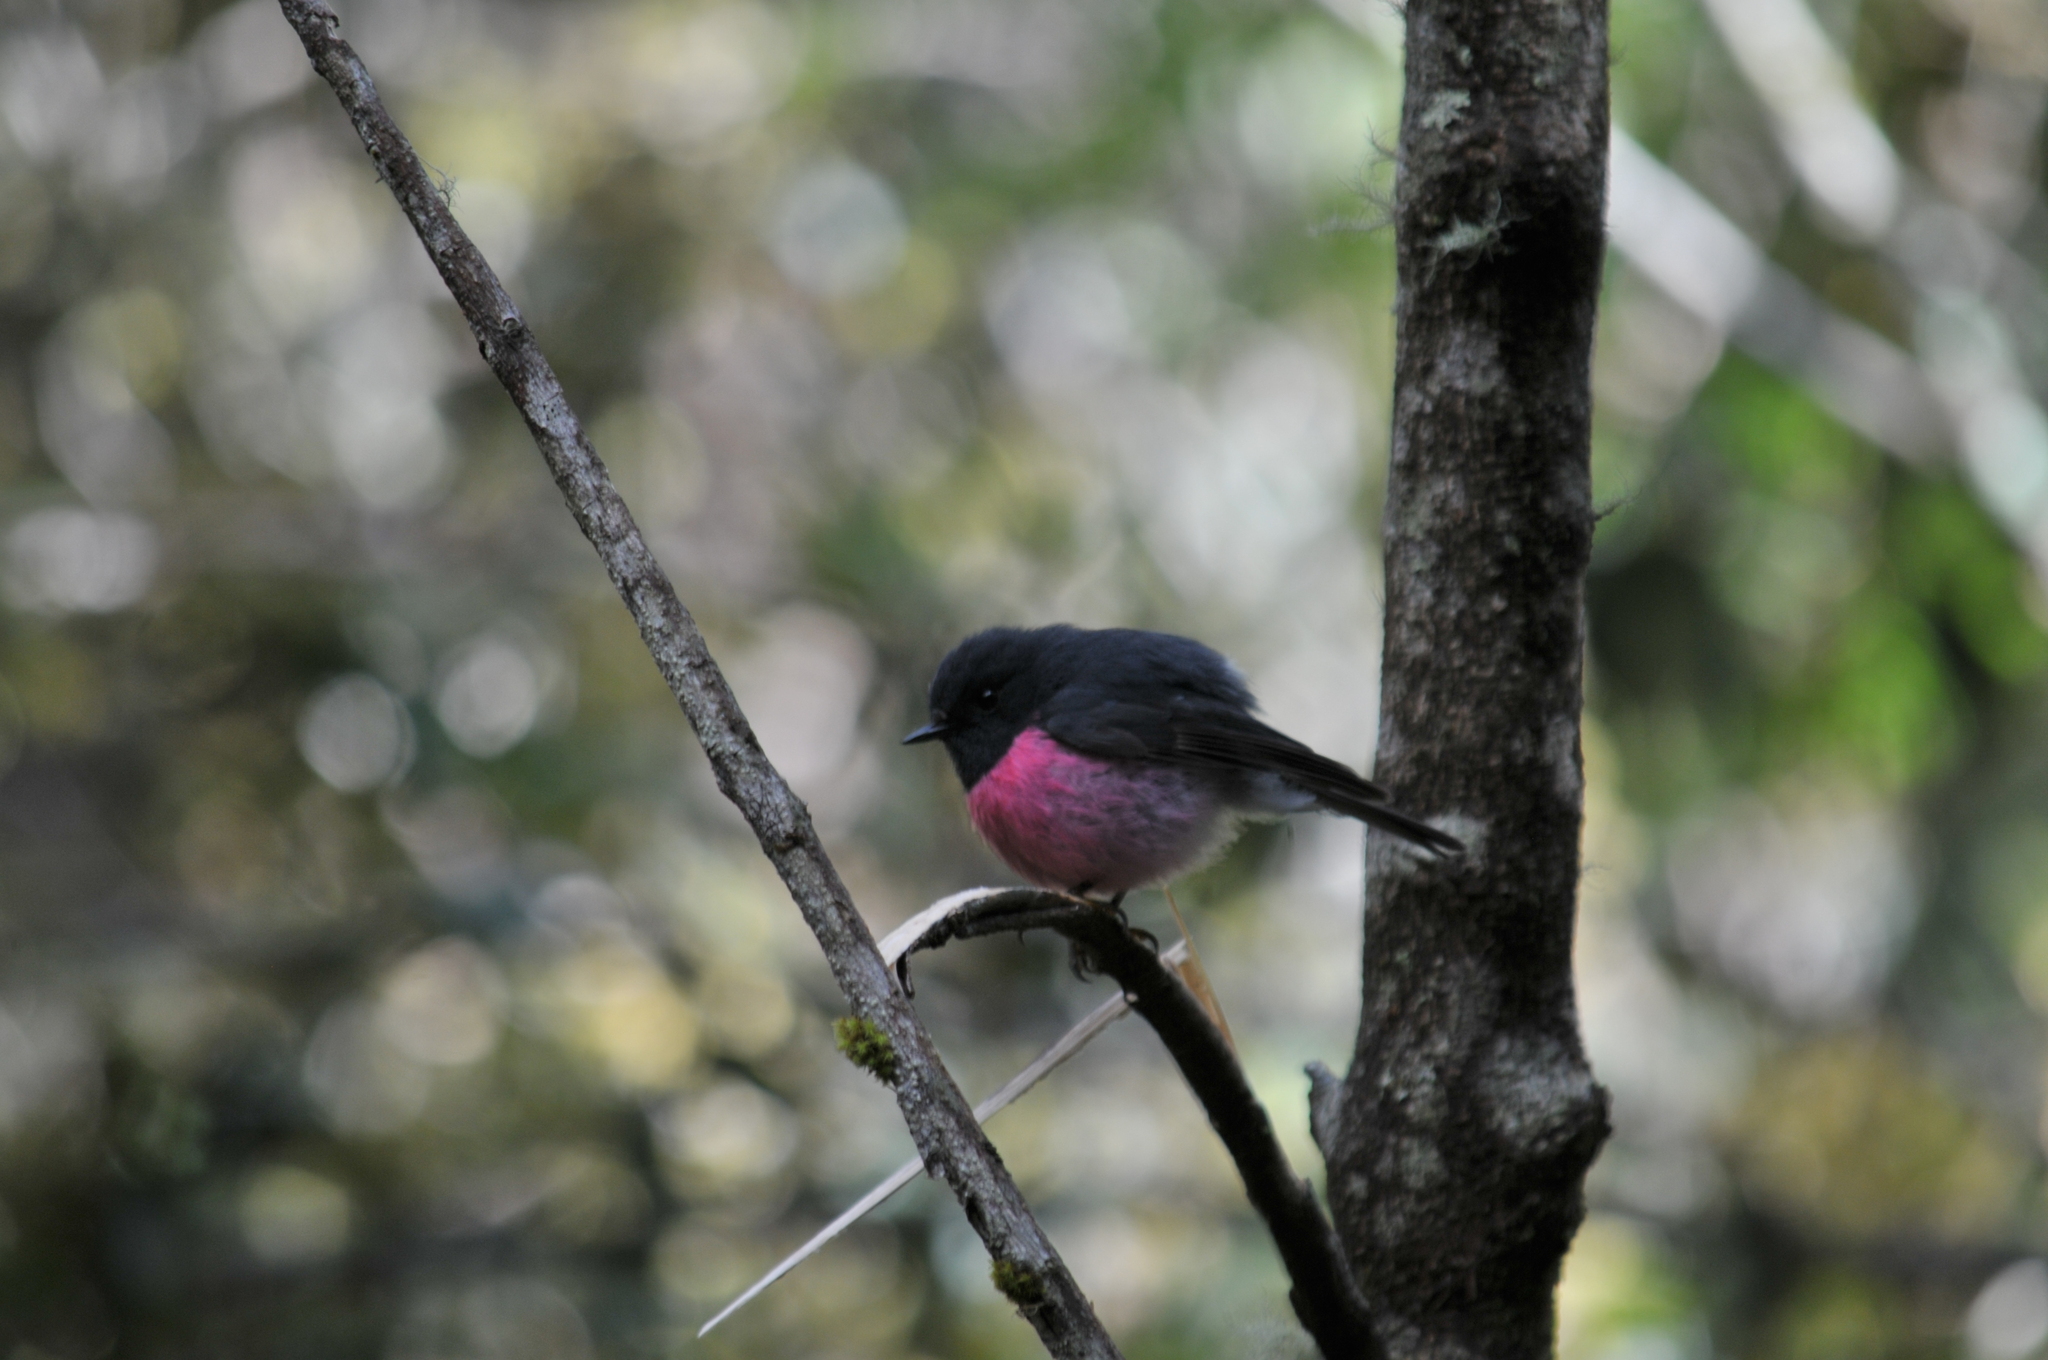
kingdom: Animalia
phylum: Chordata
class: Aves
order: Passeriformes
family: Petroicidae
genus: Petroica
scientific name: Petroica rodinogaster
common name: Pink robin
